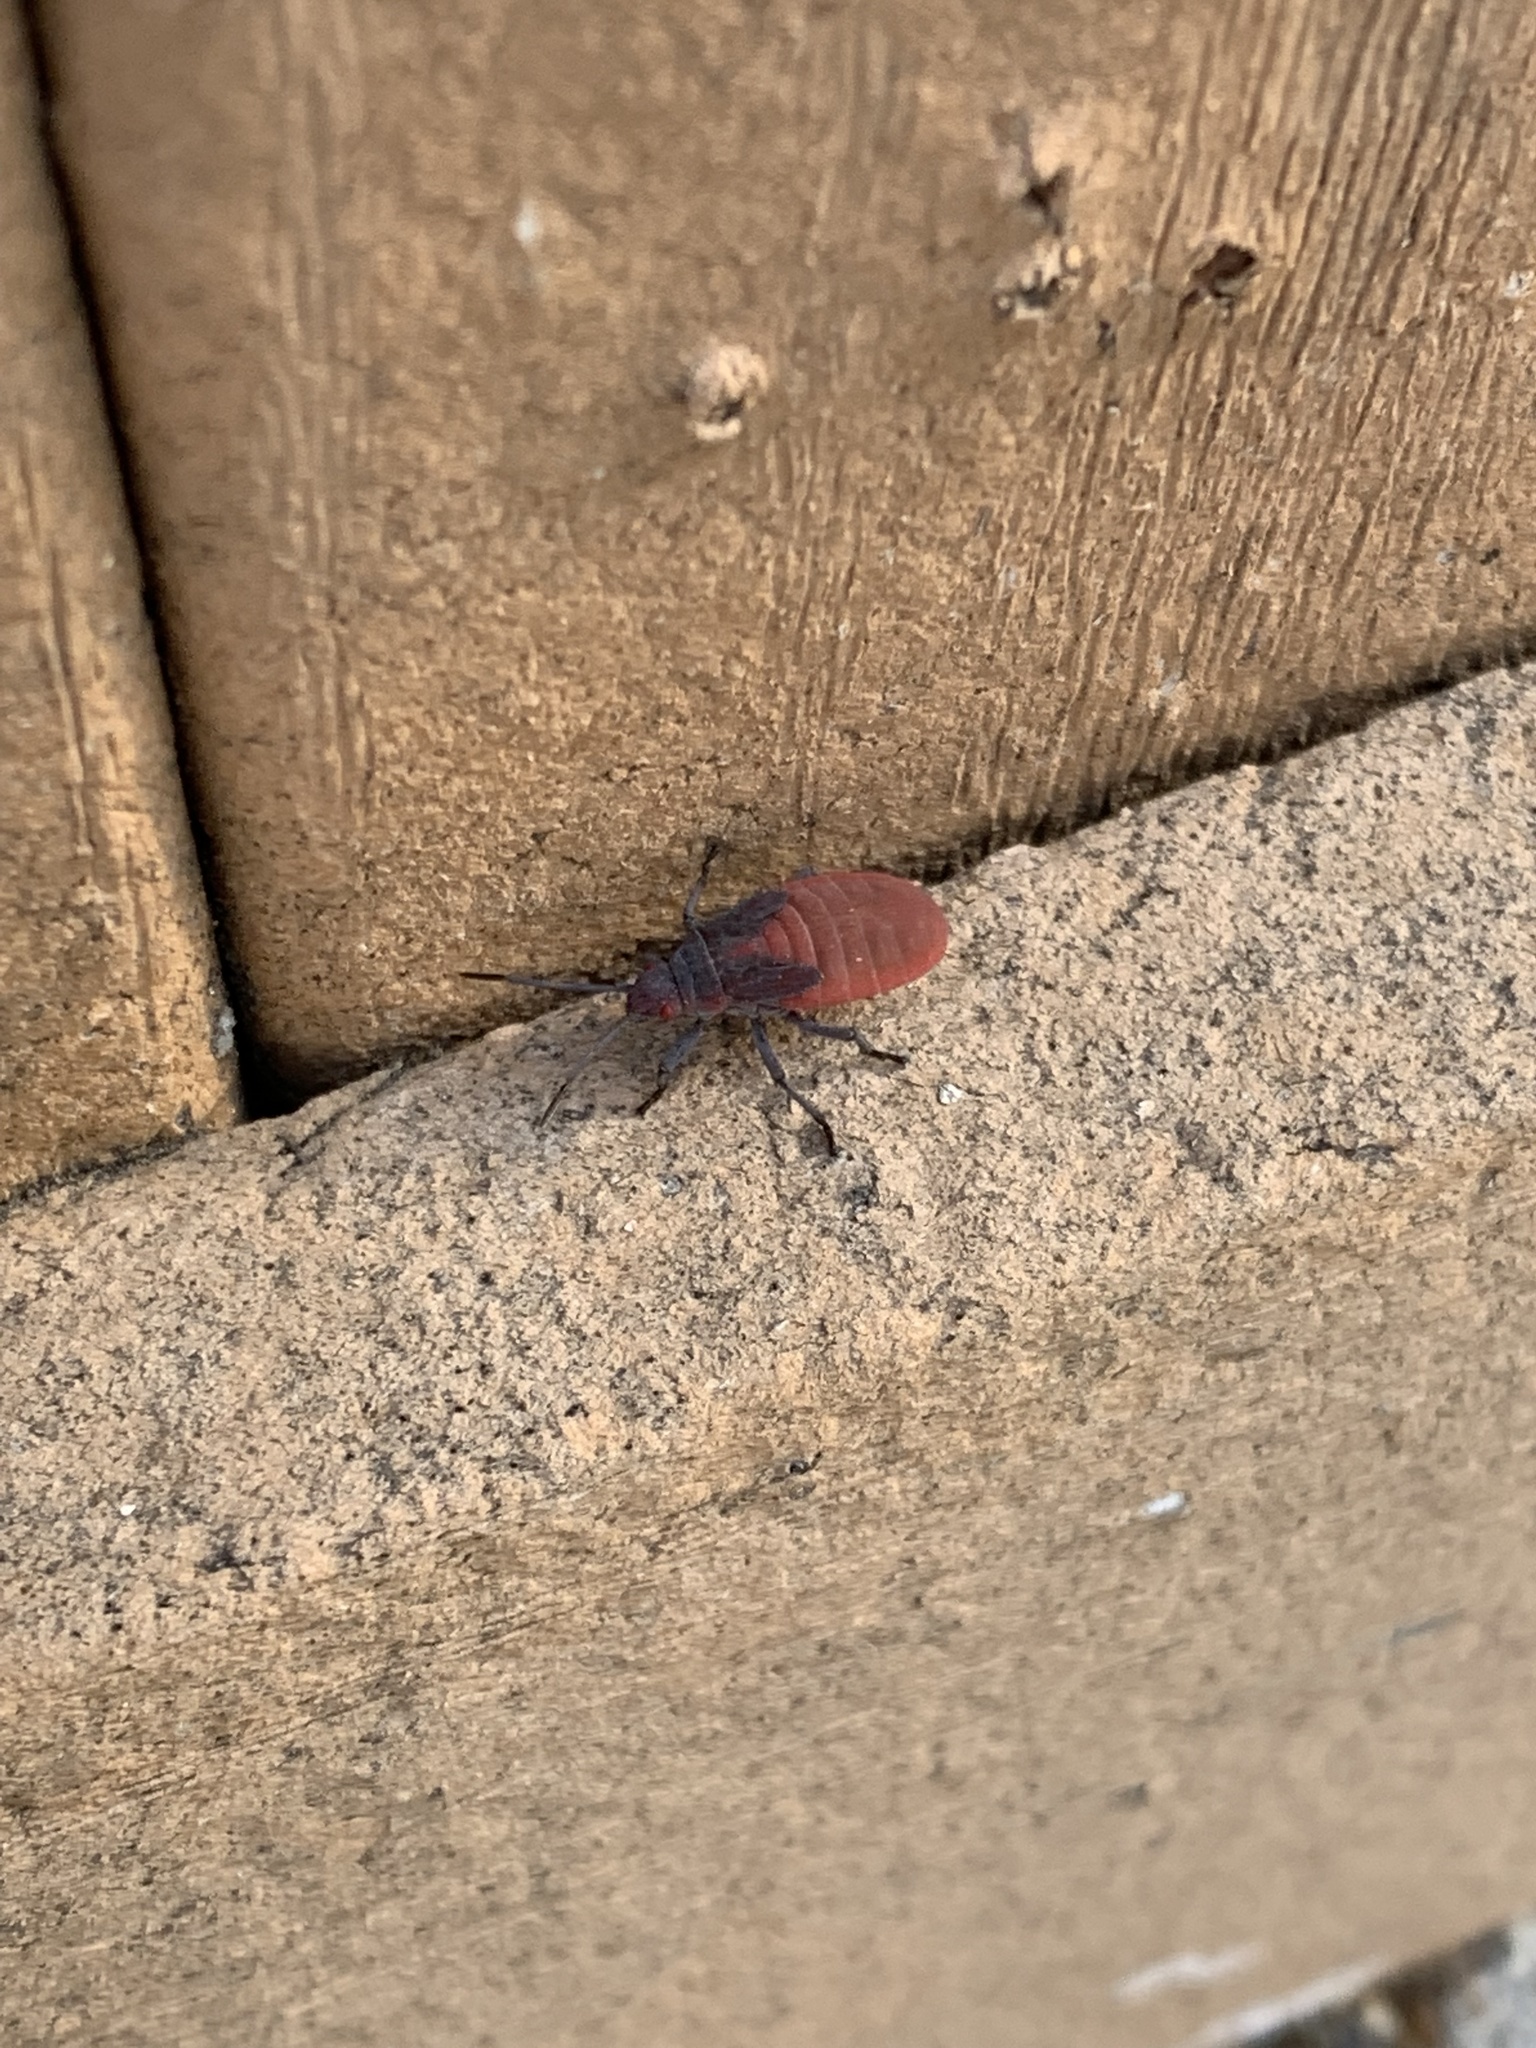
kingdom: Animalia
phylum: Arthropoda
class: Insecta
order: Hemiptera
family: Rhopalidae
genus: Jadera
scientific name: Jadera haematoloma
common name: Red-shouldered bug
